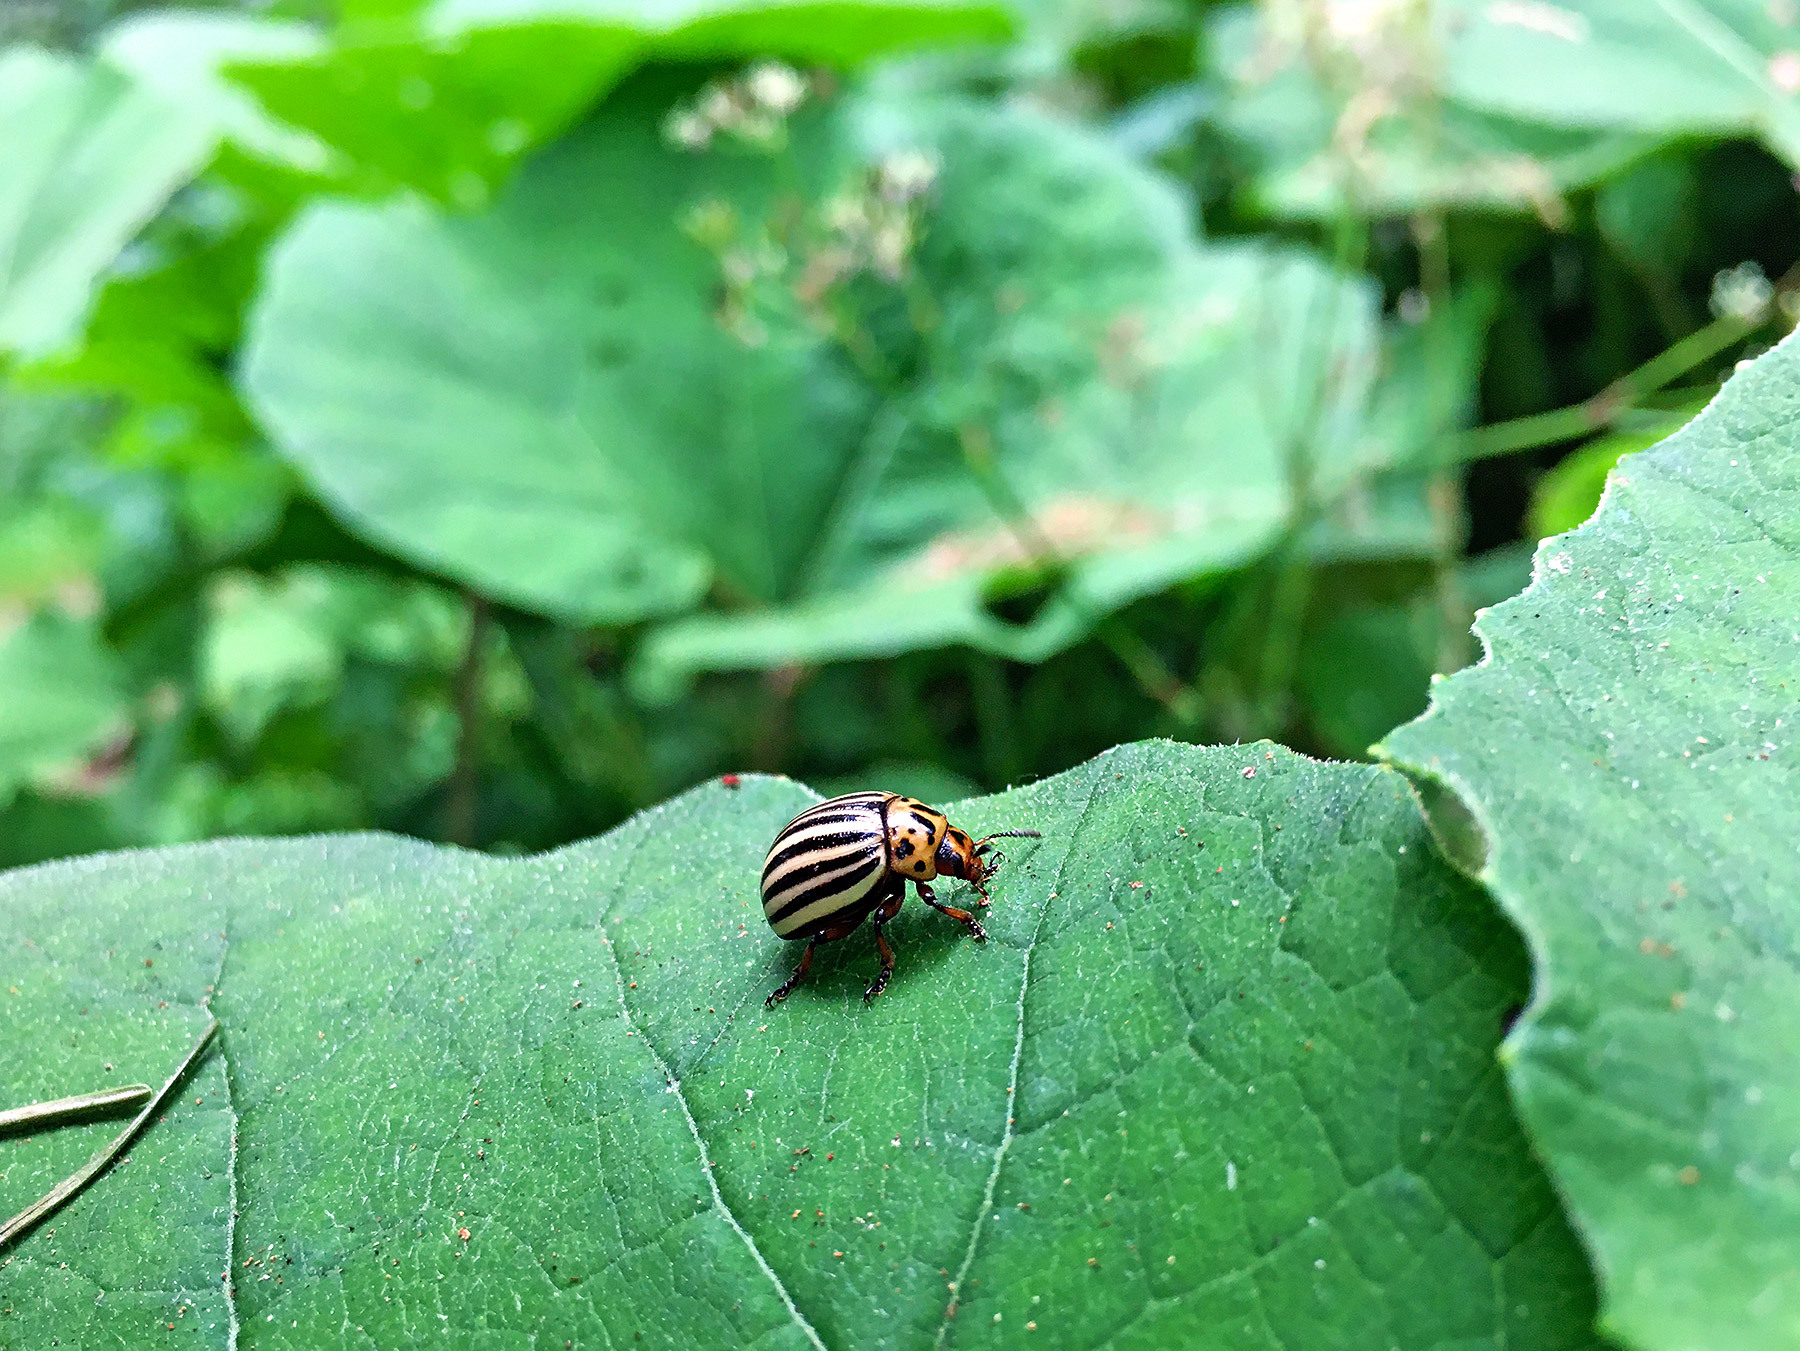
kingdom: Animalia
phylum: Arthropoda
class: Insecta
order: Coleoptera
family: Chrysomelidae
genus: Leptinotarsa
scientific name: Leptinotarsa decemlineata
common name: Colorado potato beetle
